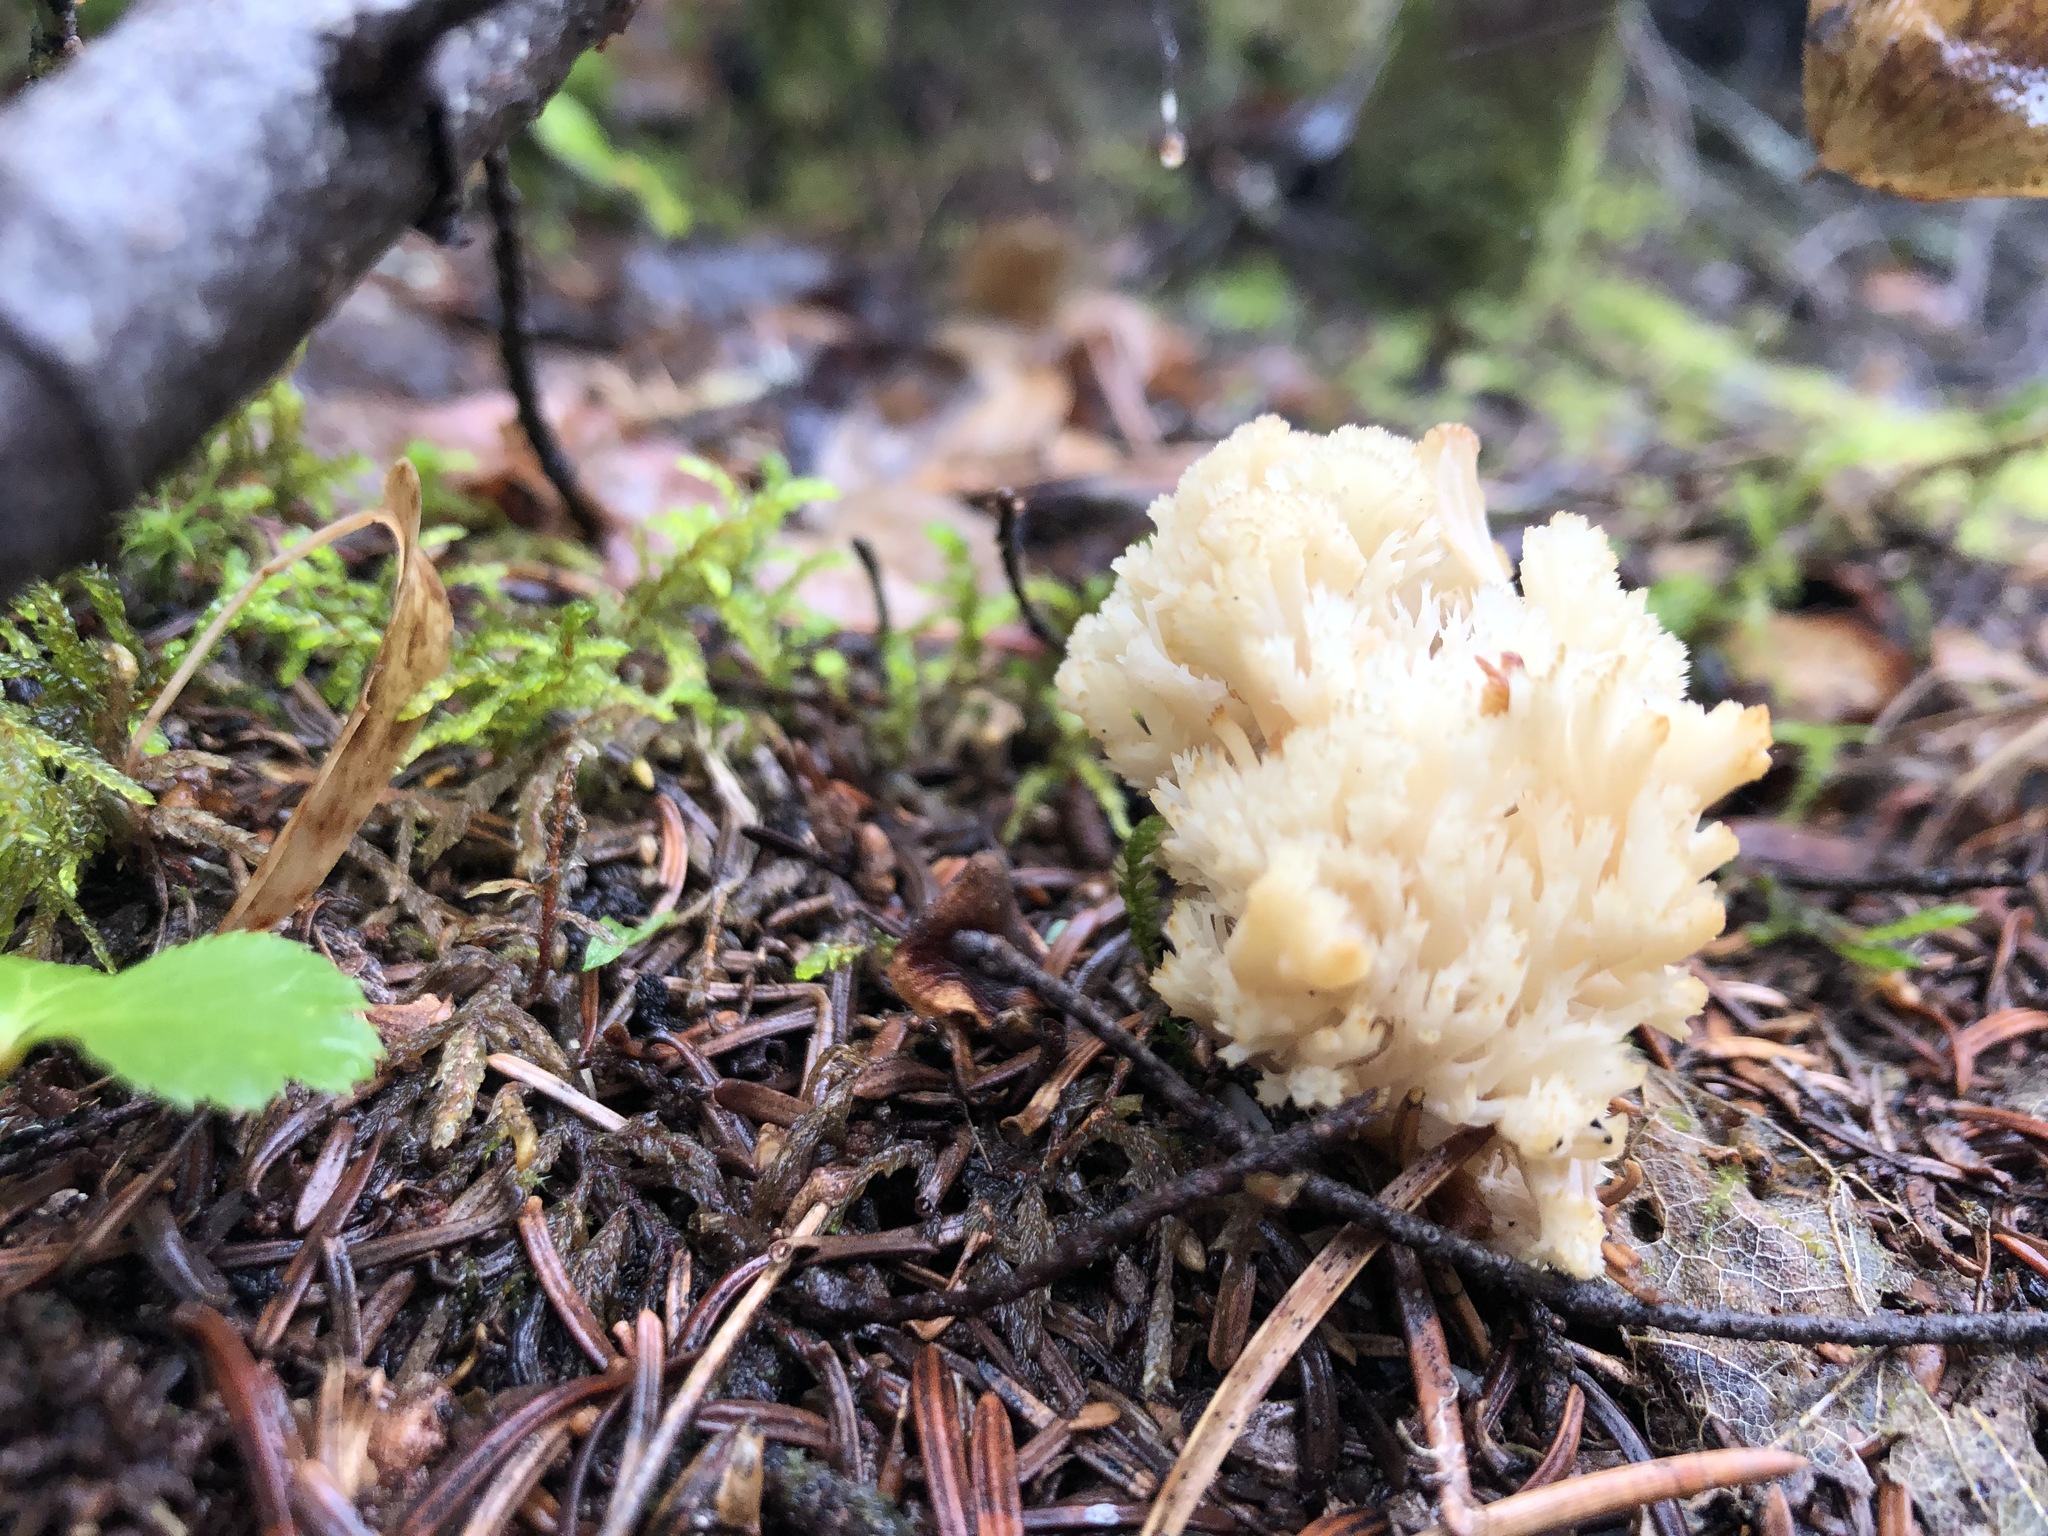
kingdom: Fungi
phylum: Basidiomycota
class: Agaricomycetes
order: Cantharellales
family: Hydnaceae
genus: Clavulina
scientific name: Clavulina coralloides
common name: Crested coral
